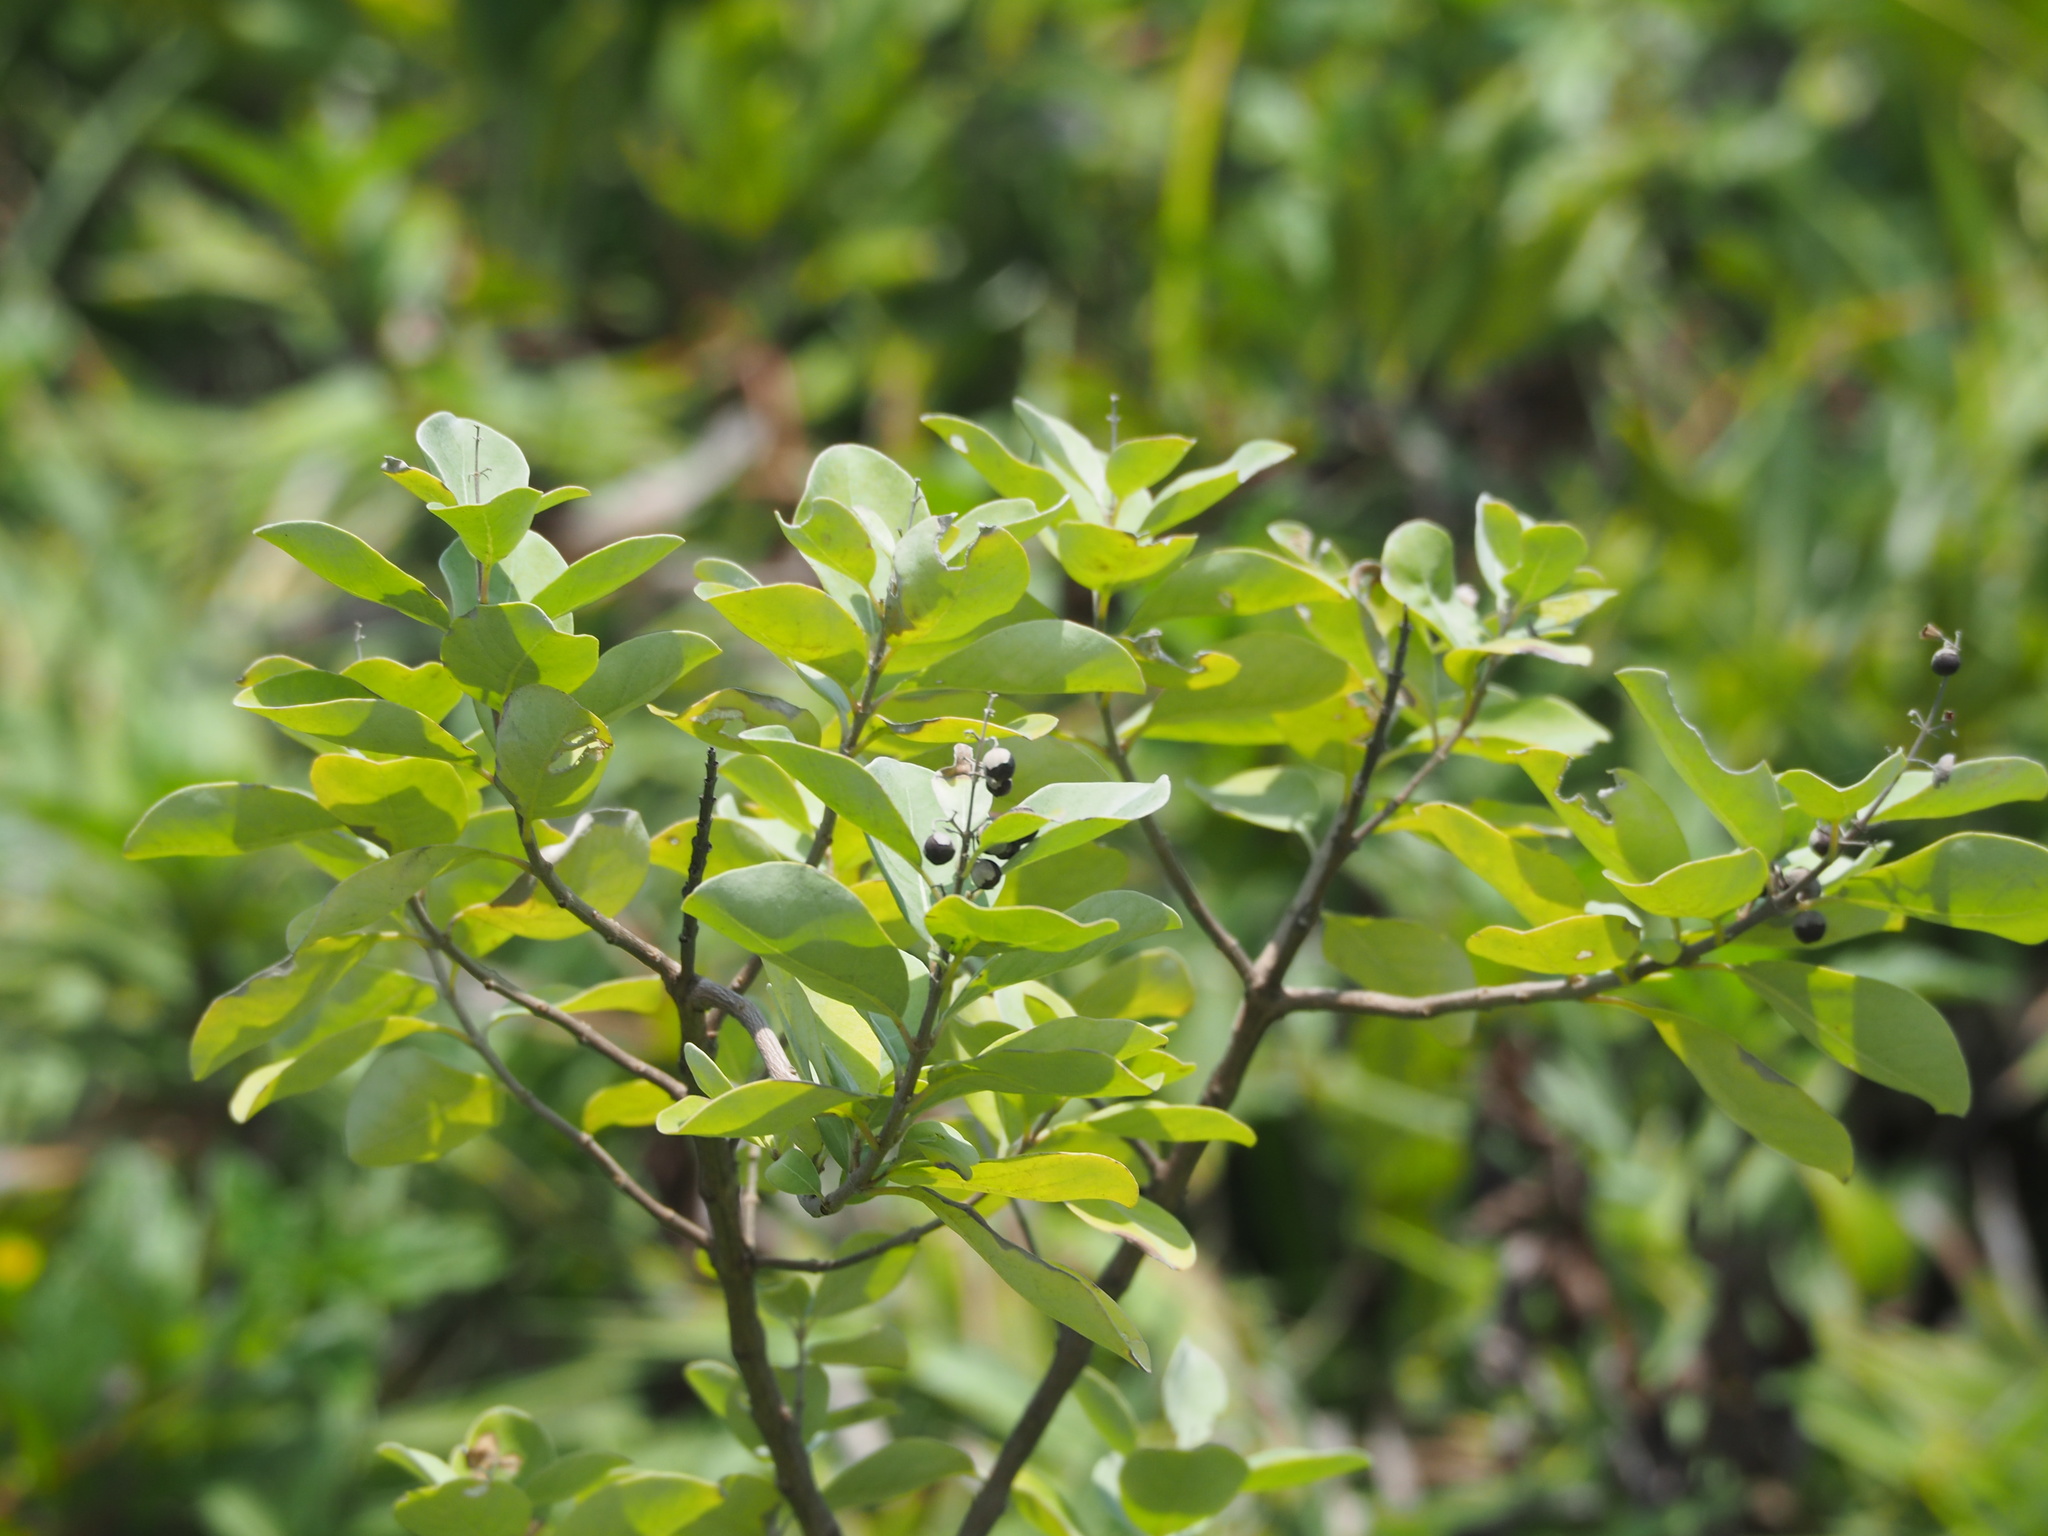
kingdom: Plantae
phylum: Tracheophyta
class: Magnoliopsida
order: Malvales
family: Thymelaeaceae
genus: Wikstroemia
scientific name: Wikstroemia indica
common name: Tiebush
